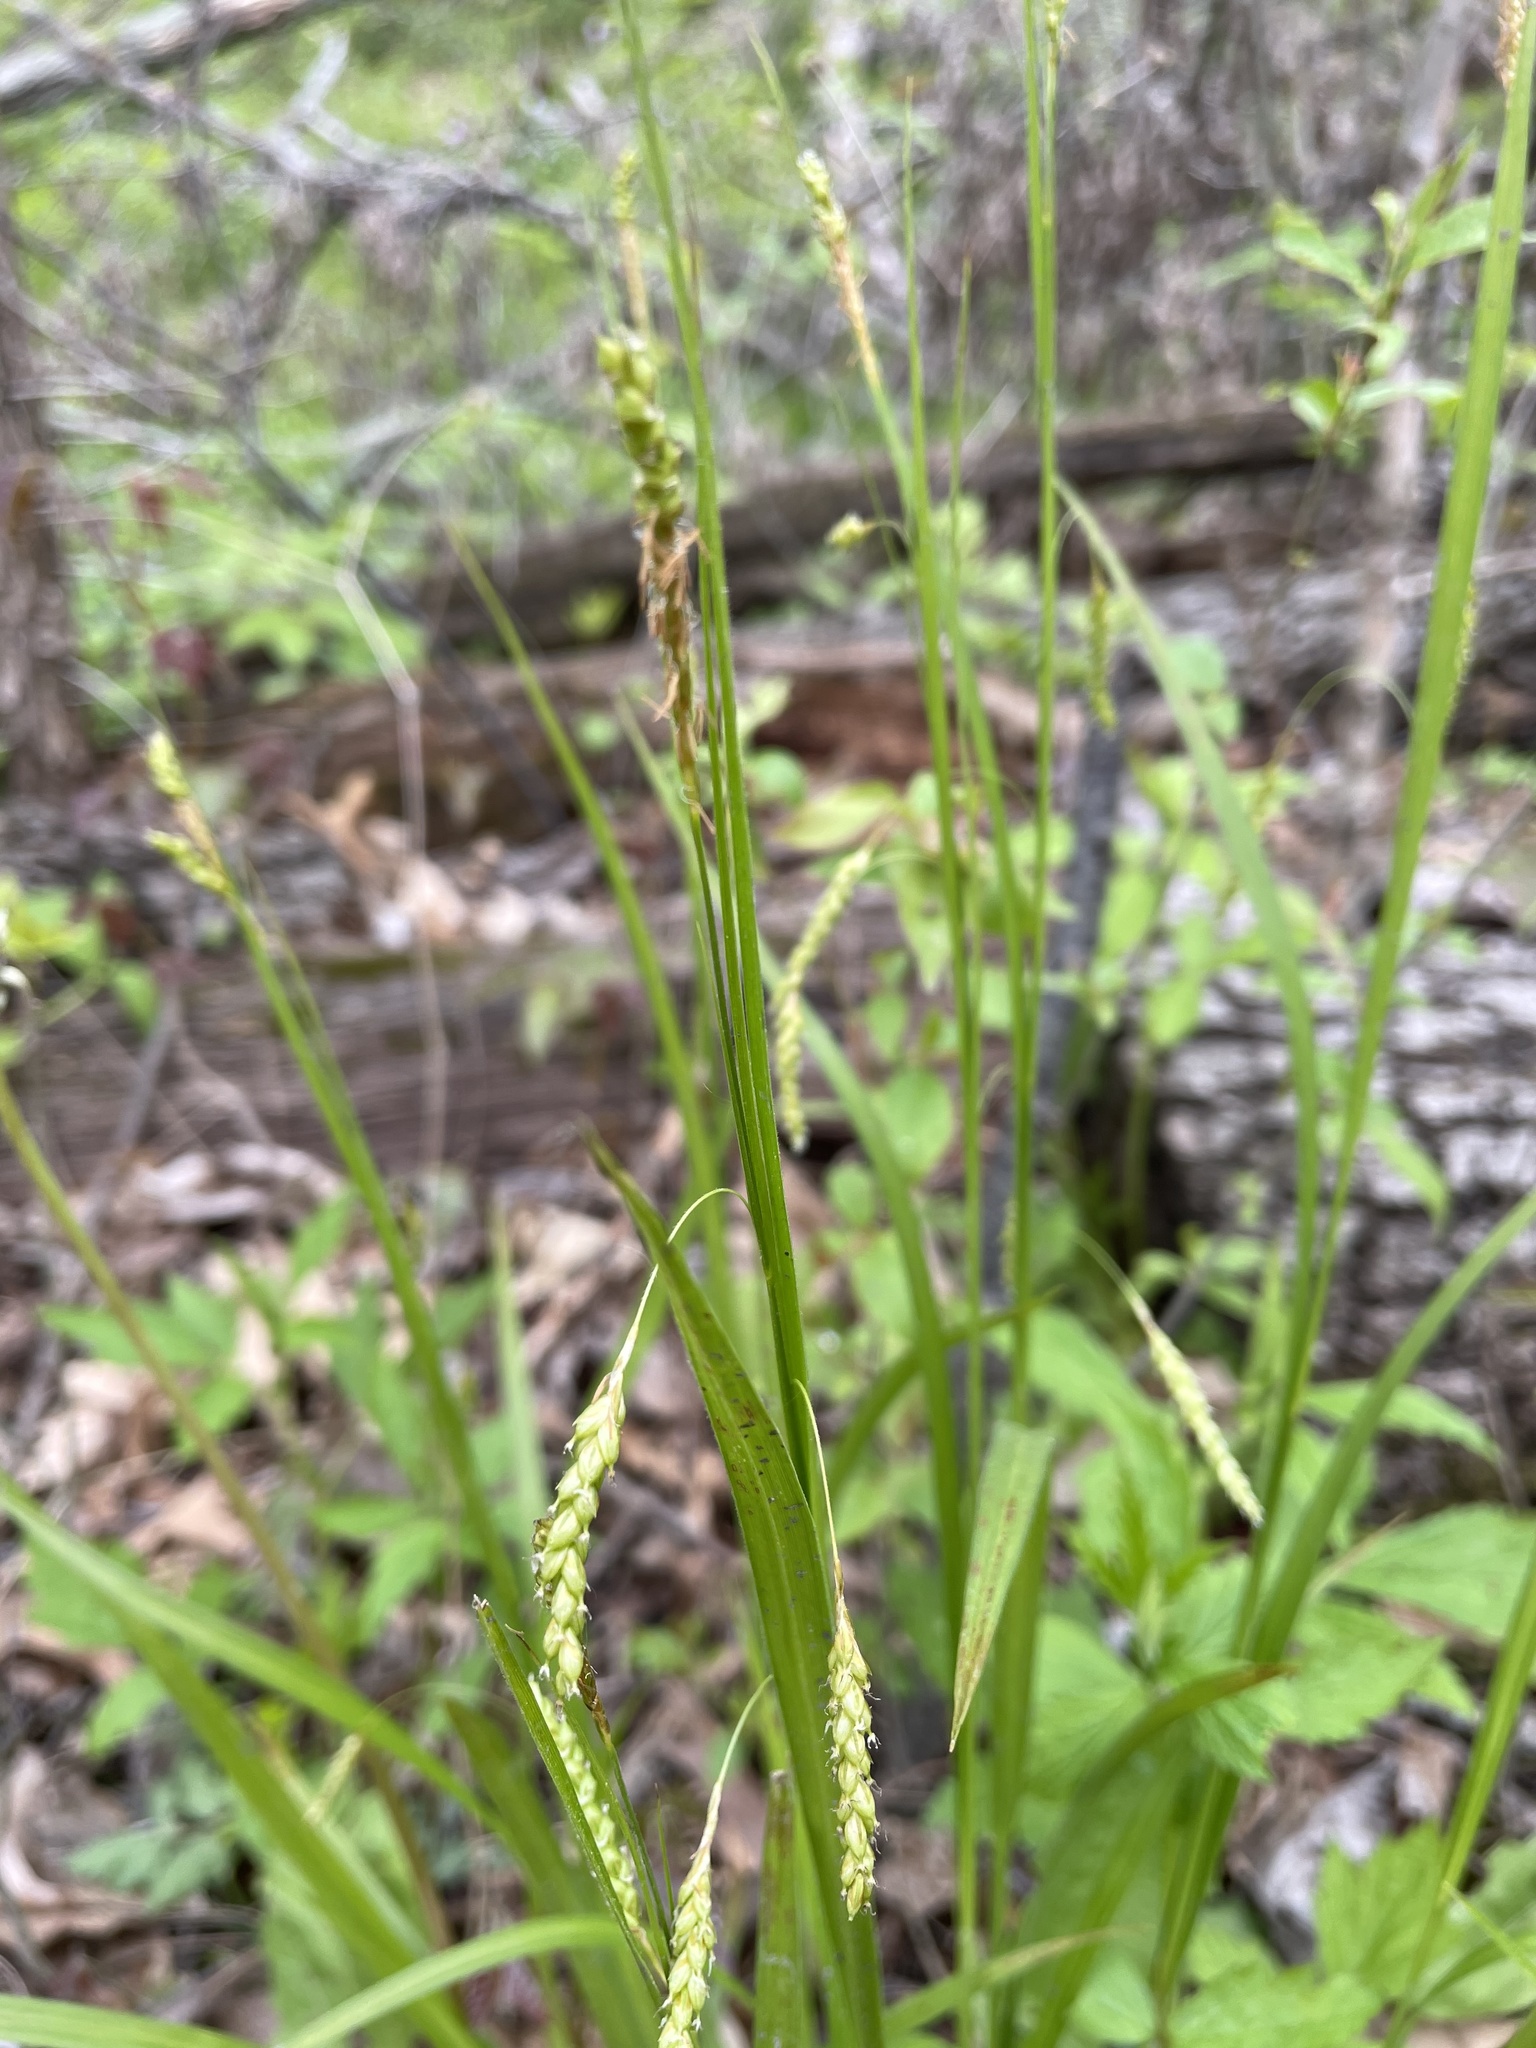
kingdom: Plantae
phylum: Tracheophyta
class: Liliopsida
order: Poales
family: Cyperaceae
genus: Carex
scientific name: Carex formosa
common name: Awnless graceful sedge
